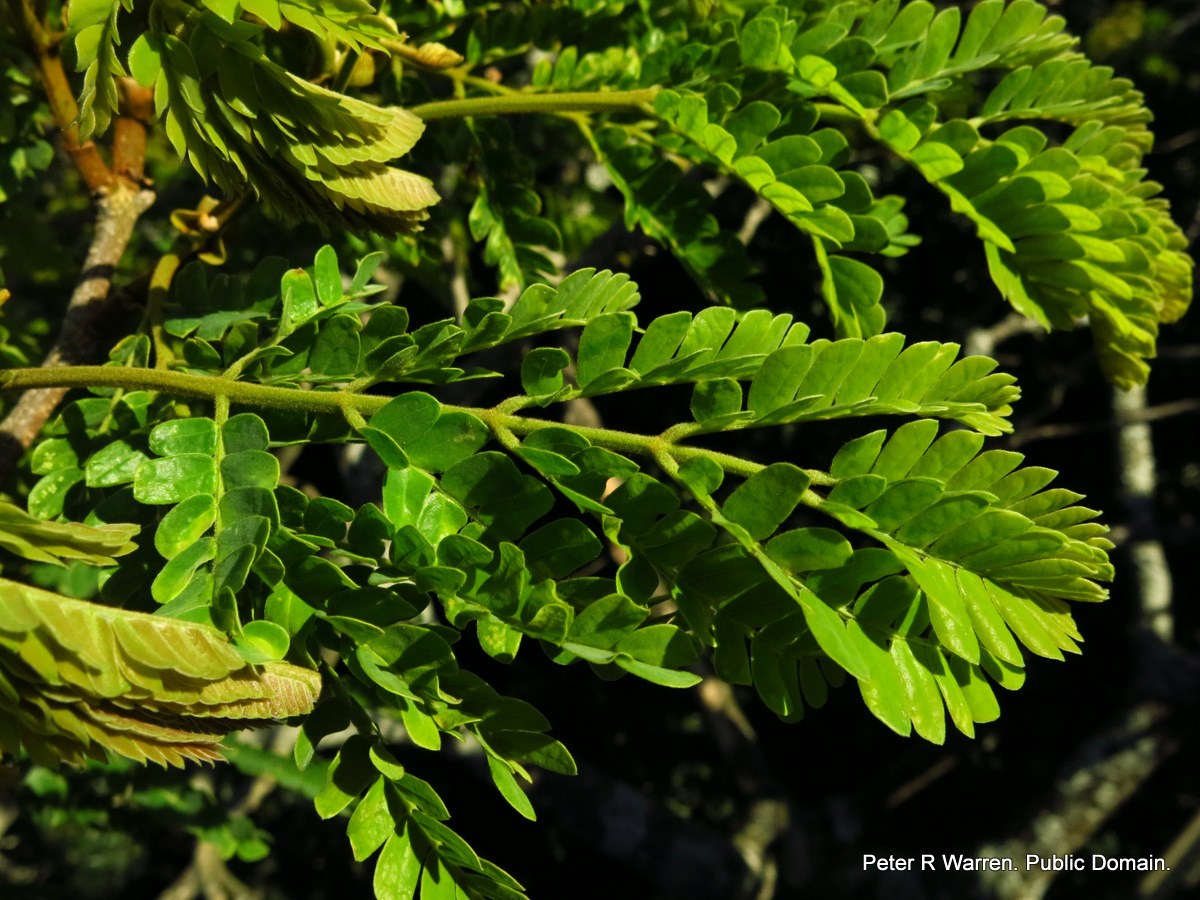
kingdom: Plantae
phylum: Tracheophyta
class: Magnoliopsida
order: Fabales
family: Fabaceae
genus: Albizia
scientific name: Albizia adianthifolia
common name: West african albizia
